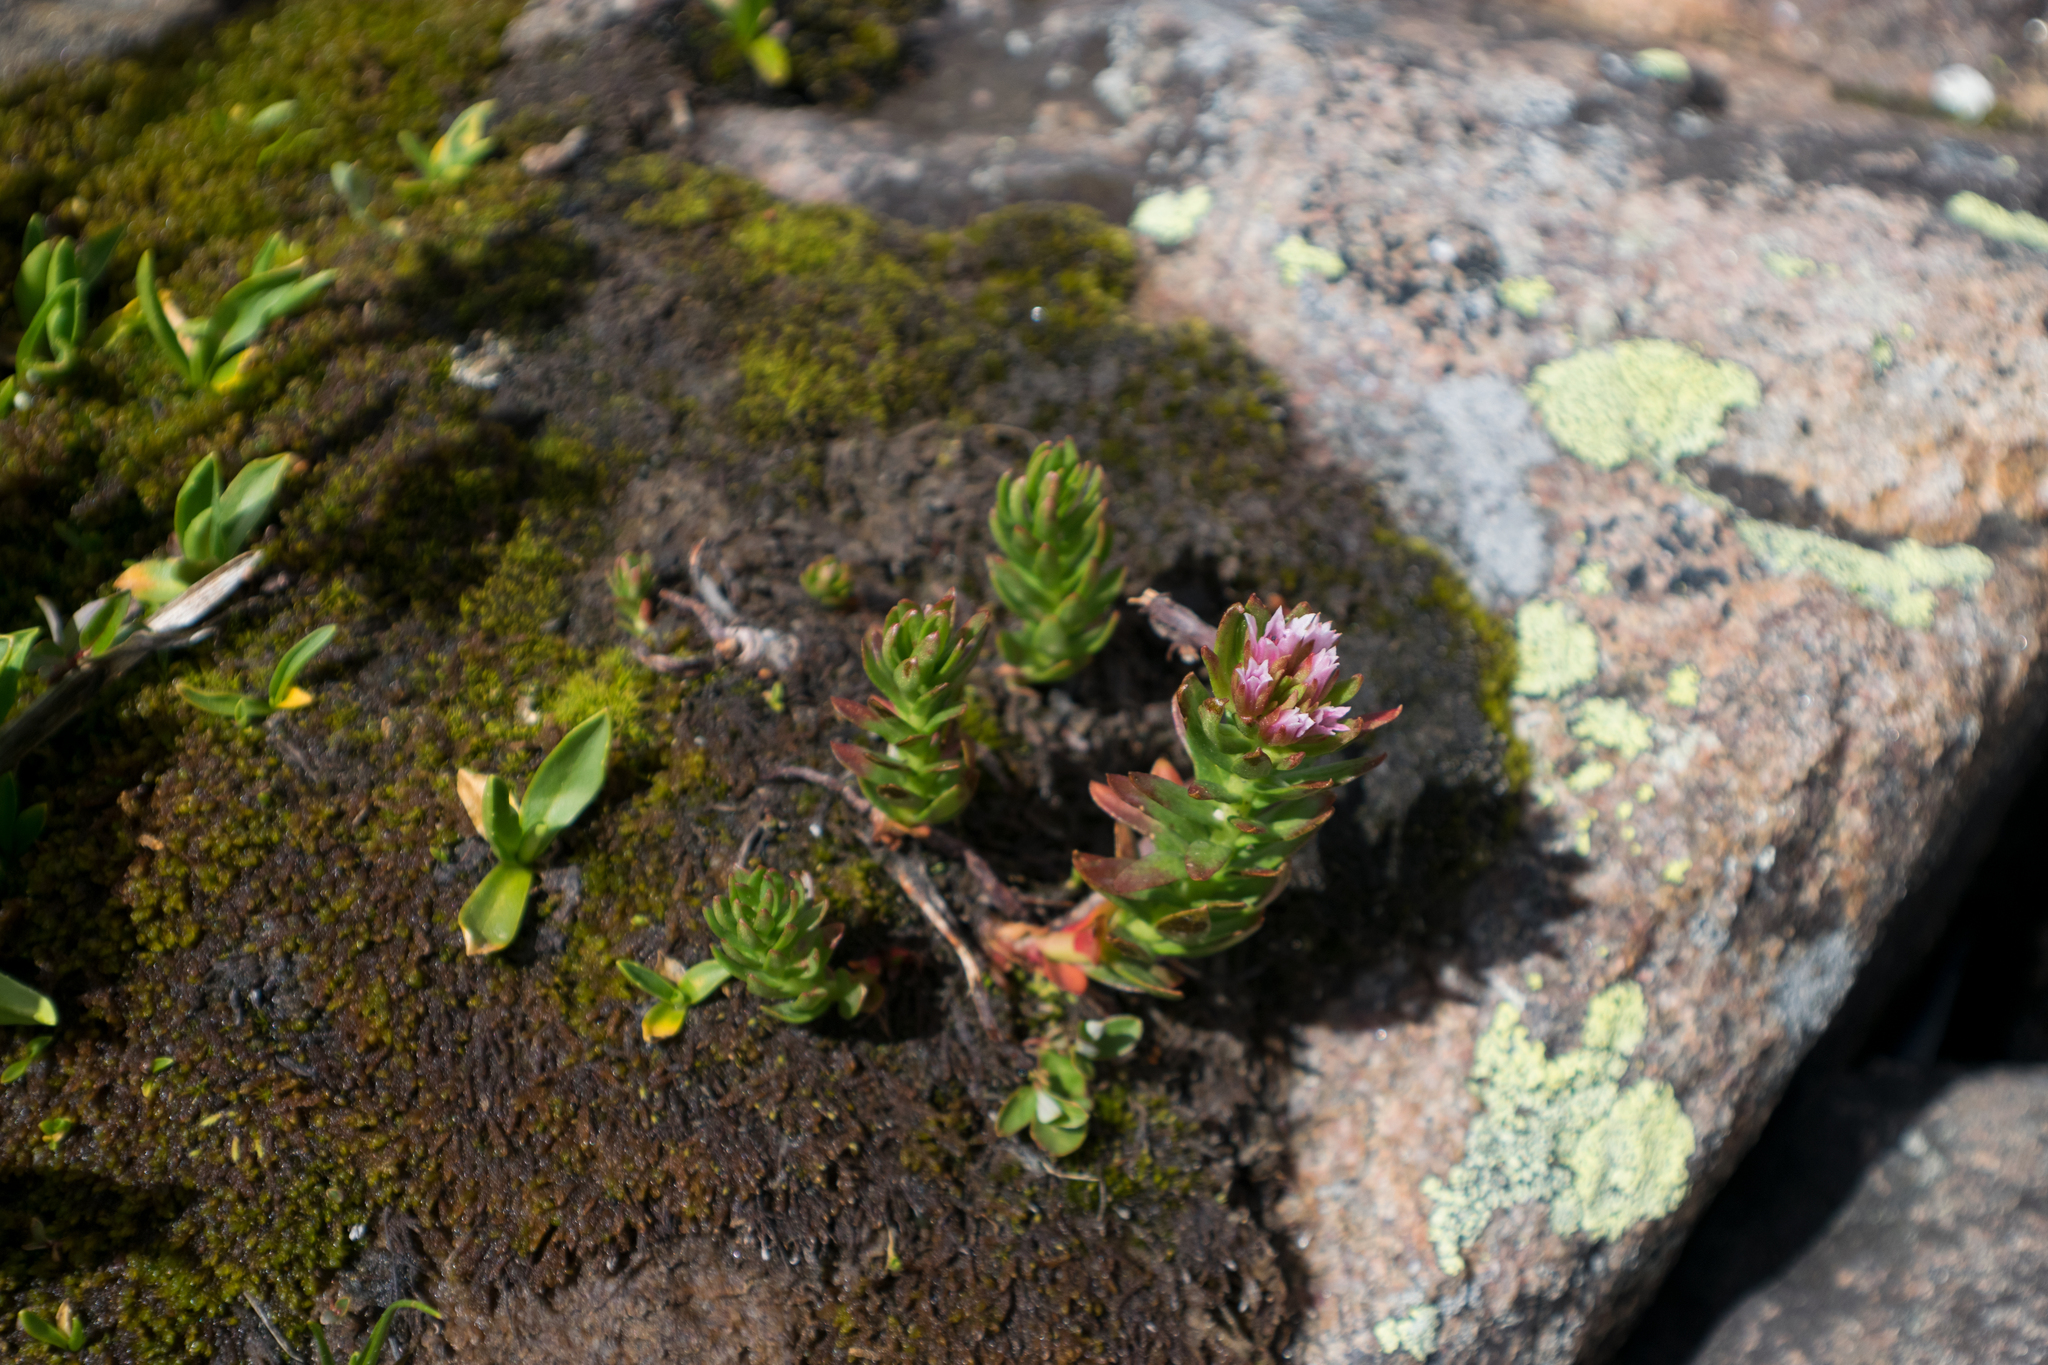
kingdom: Plantae
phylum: Tracheophyta
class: Magnoliopsida
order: Saxifragales
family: Crassulaceae
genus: Rhodiola
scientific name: Rhodiola rhodantha
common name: Red orpine
